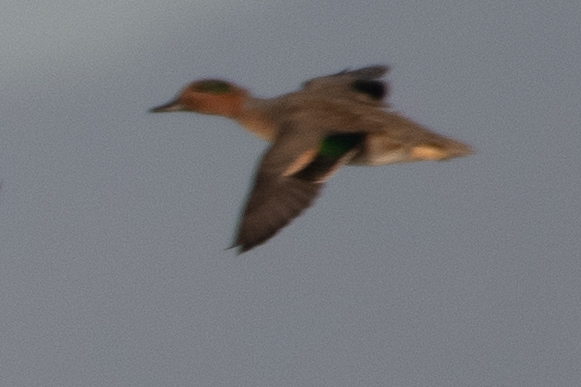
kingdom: Animalia
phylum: Chordata
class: Aves
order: Anseriformes
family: Anatidae
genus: Anas
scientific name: Anas crecca
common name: Eurasian teal
